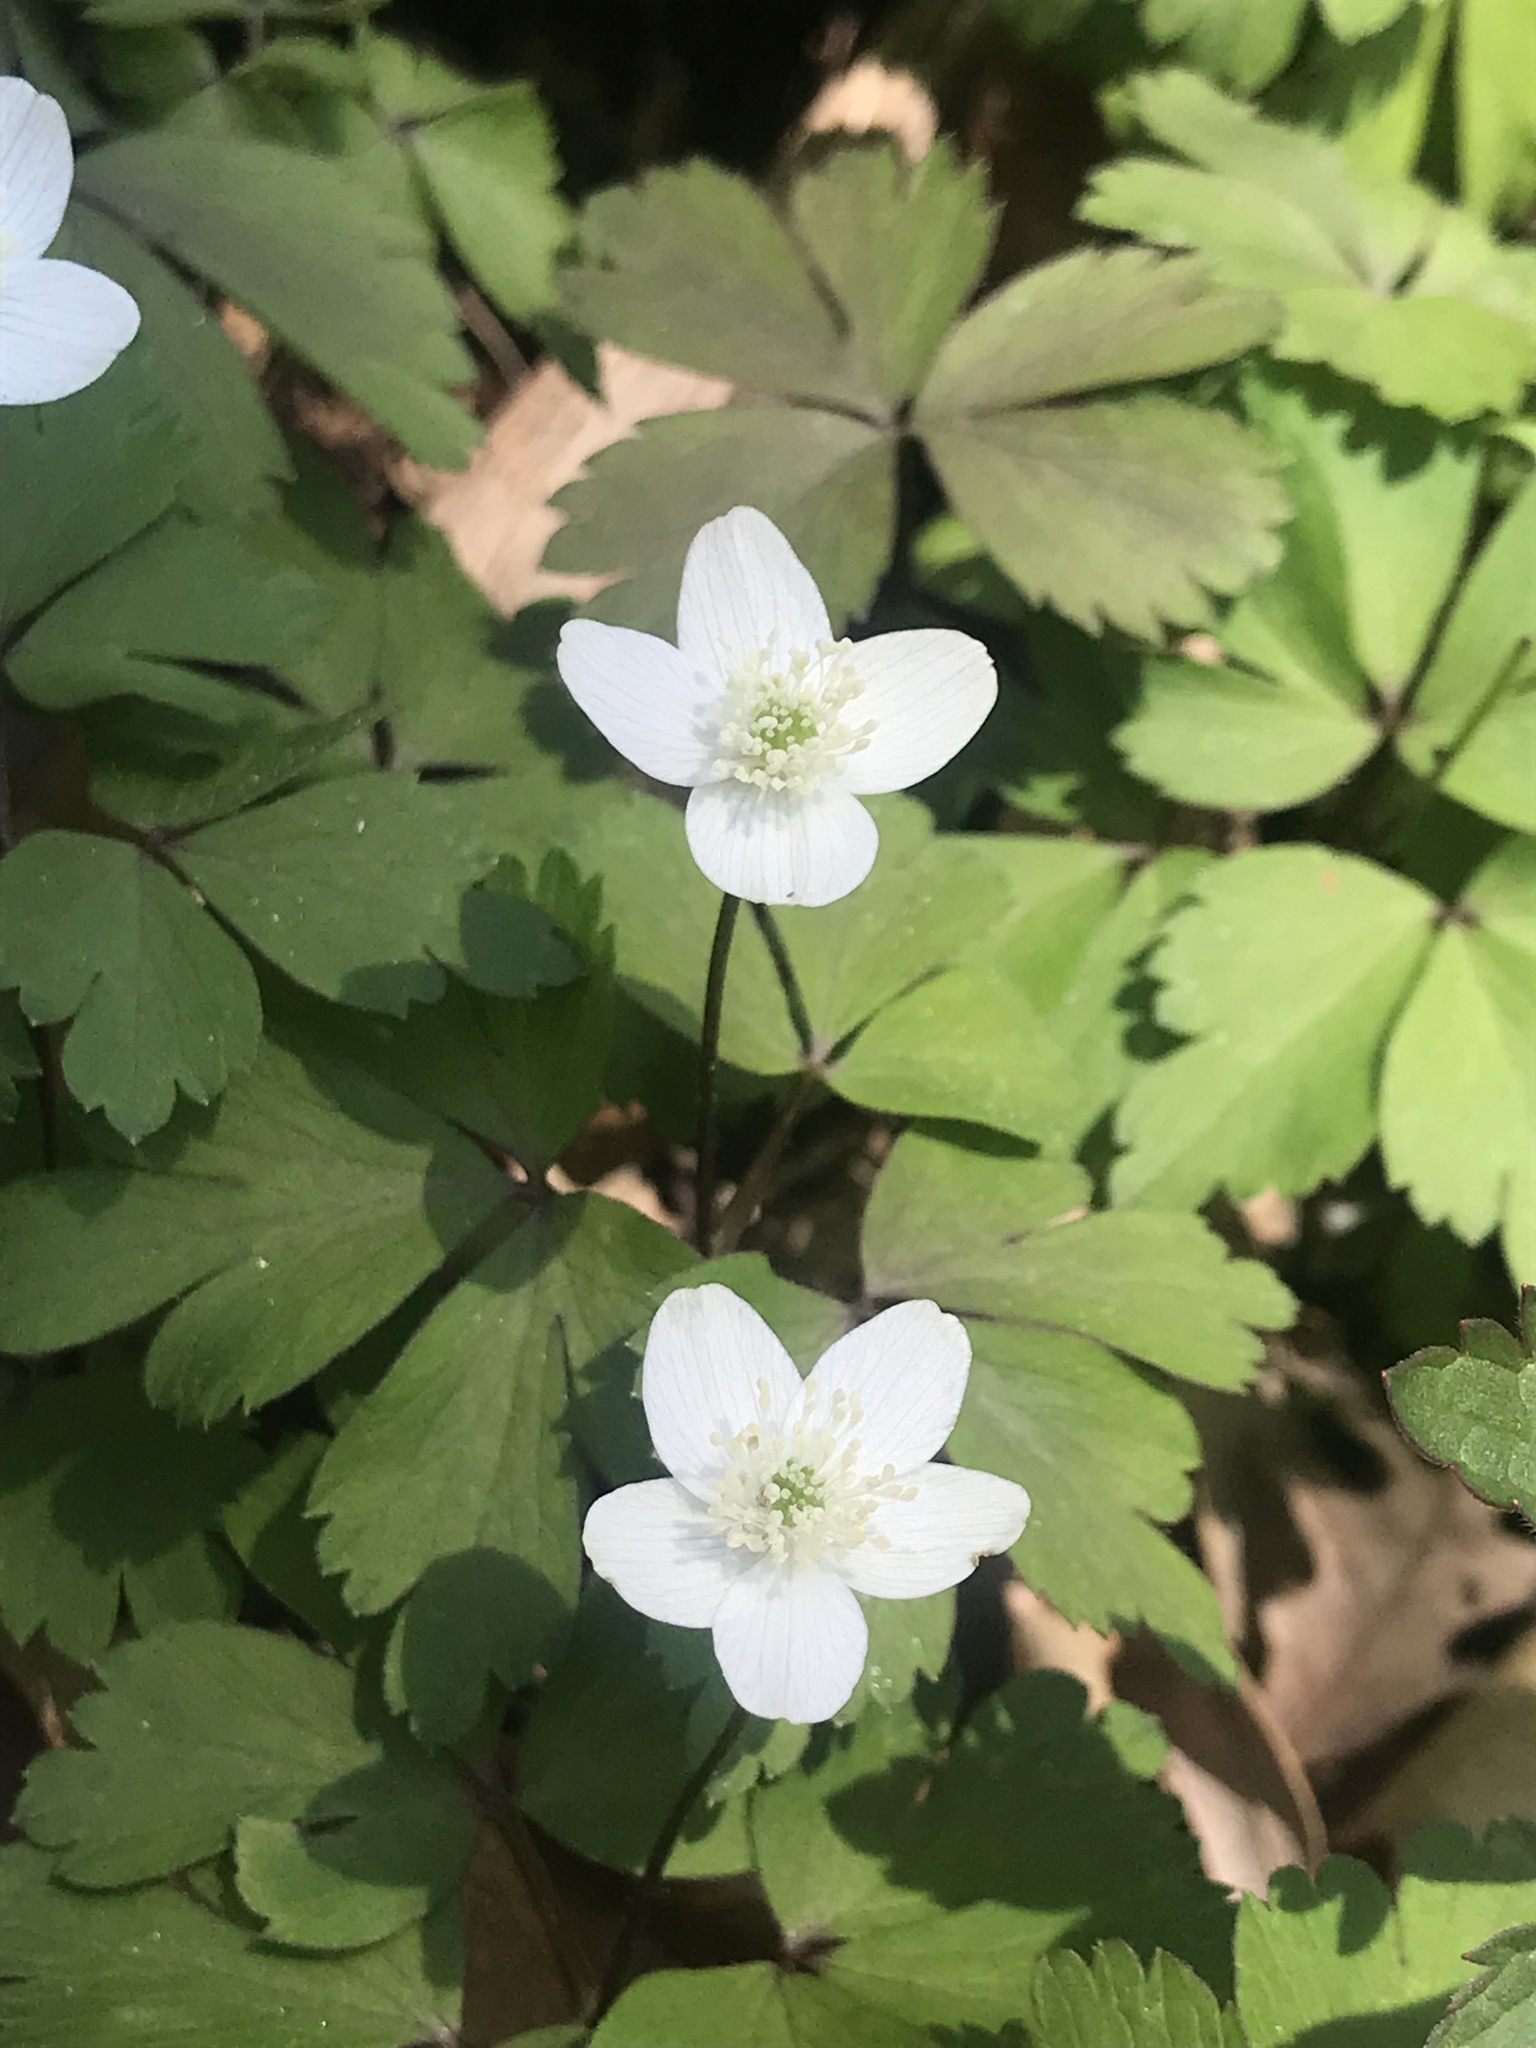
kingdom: Plantae
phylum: Tracheophyta
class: Magnoliopsida
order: Ranunculales
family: Ranunculaceae
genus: Anemone
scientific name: Anemone quinquefolia
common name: Wood anemone
